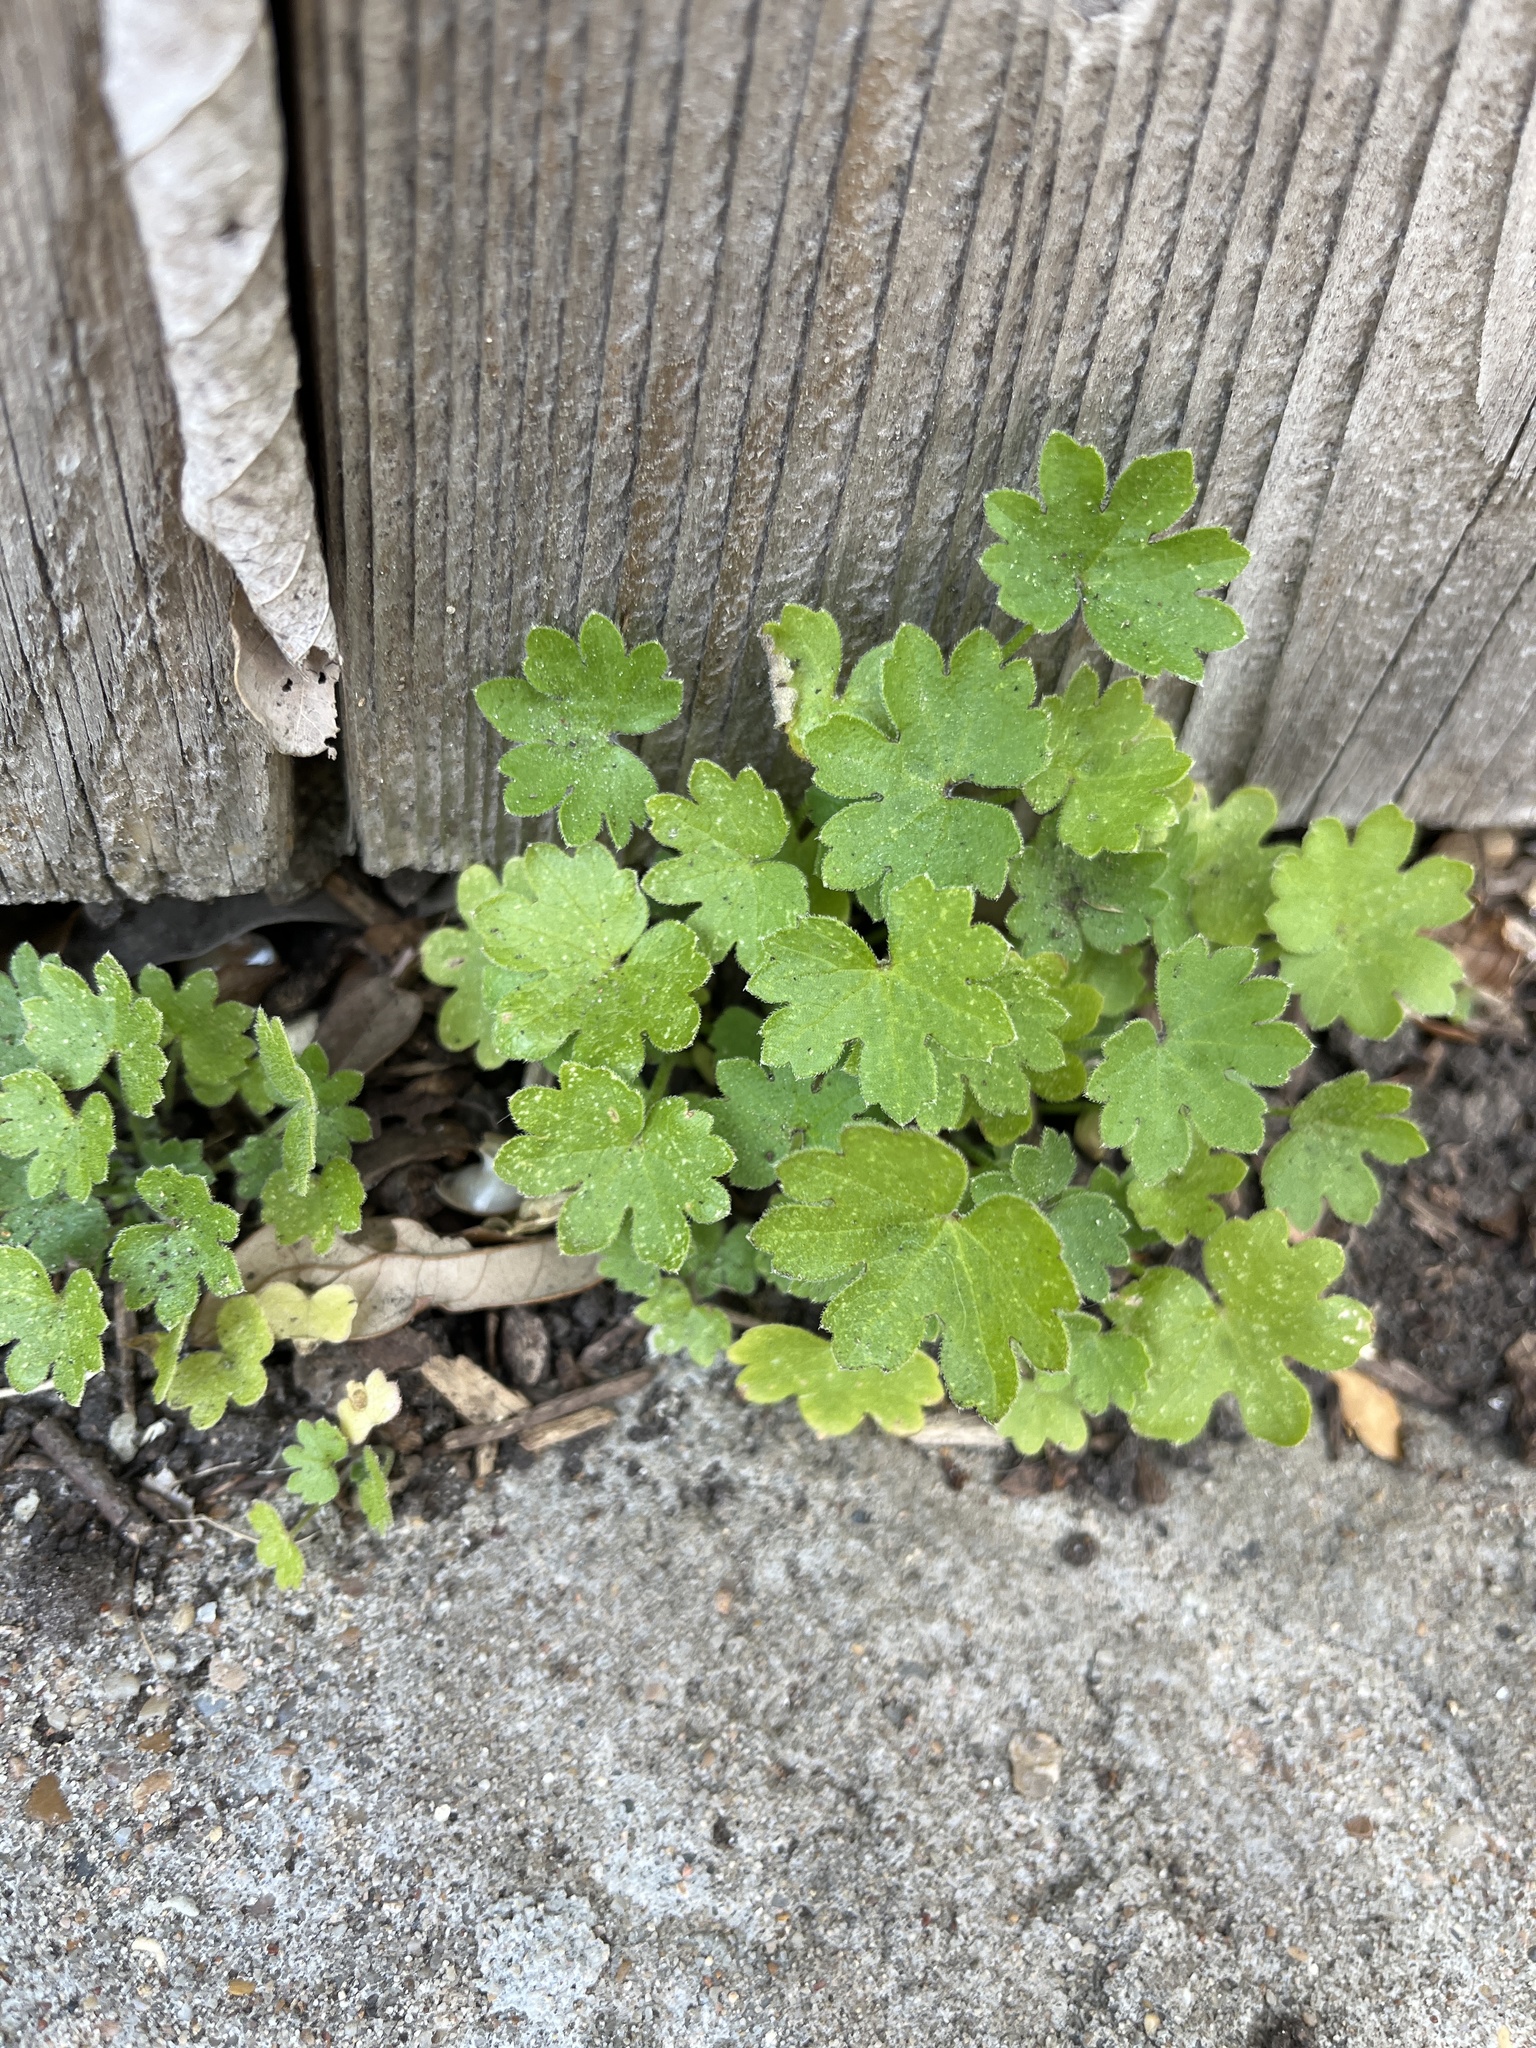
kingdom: Plantae
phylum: Tracheophyta
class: Magnoliopsida
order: Apiales
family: Apiaceae
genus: Bowlesia
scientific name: Bowlesia incana
